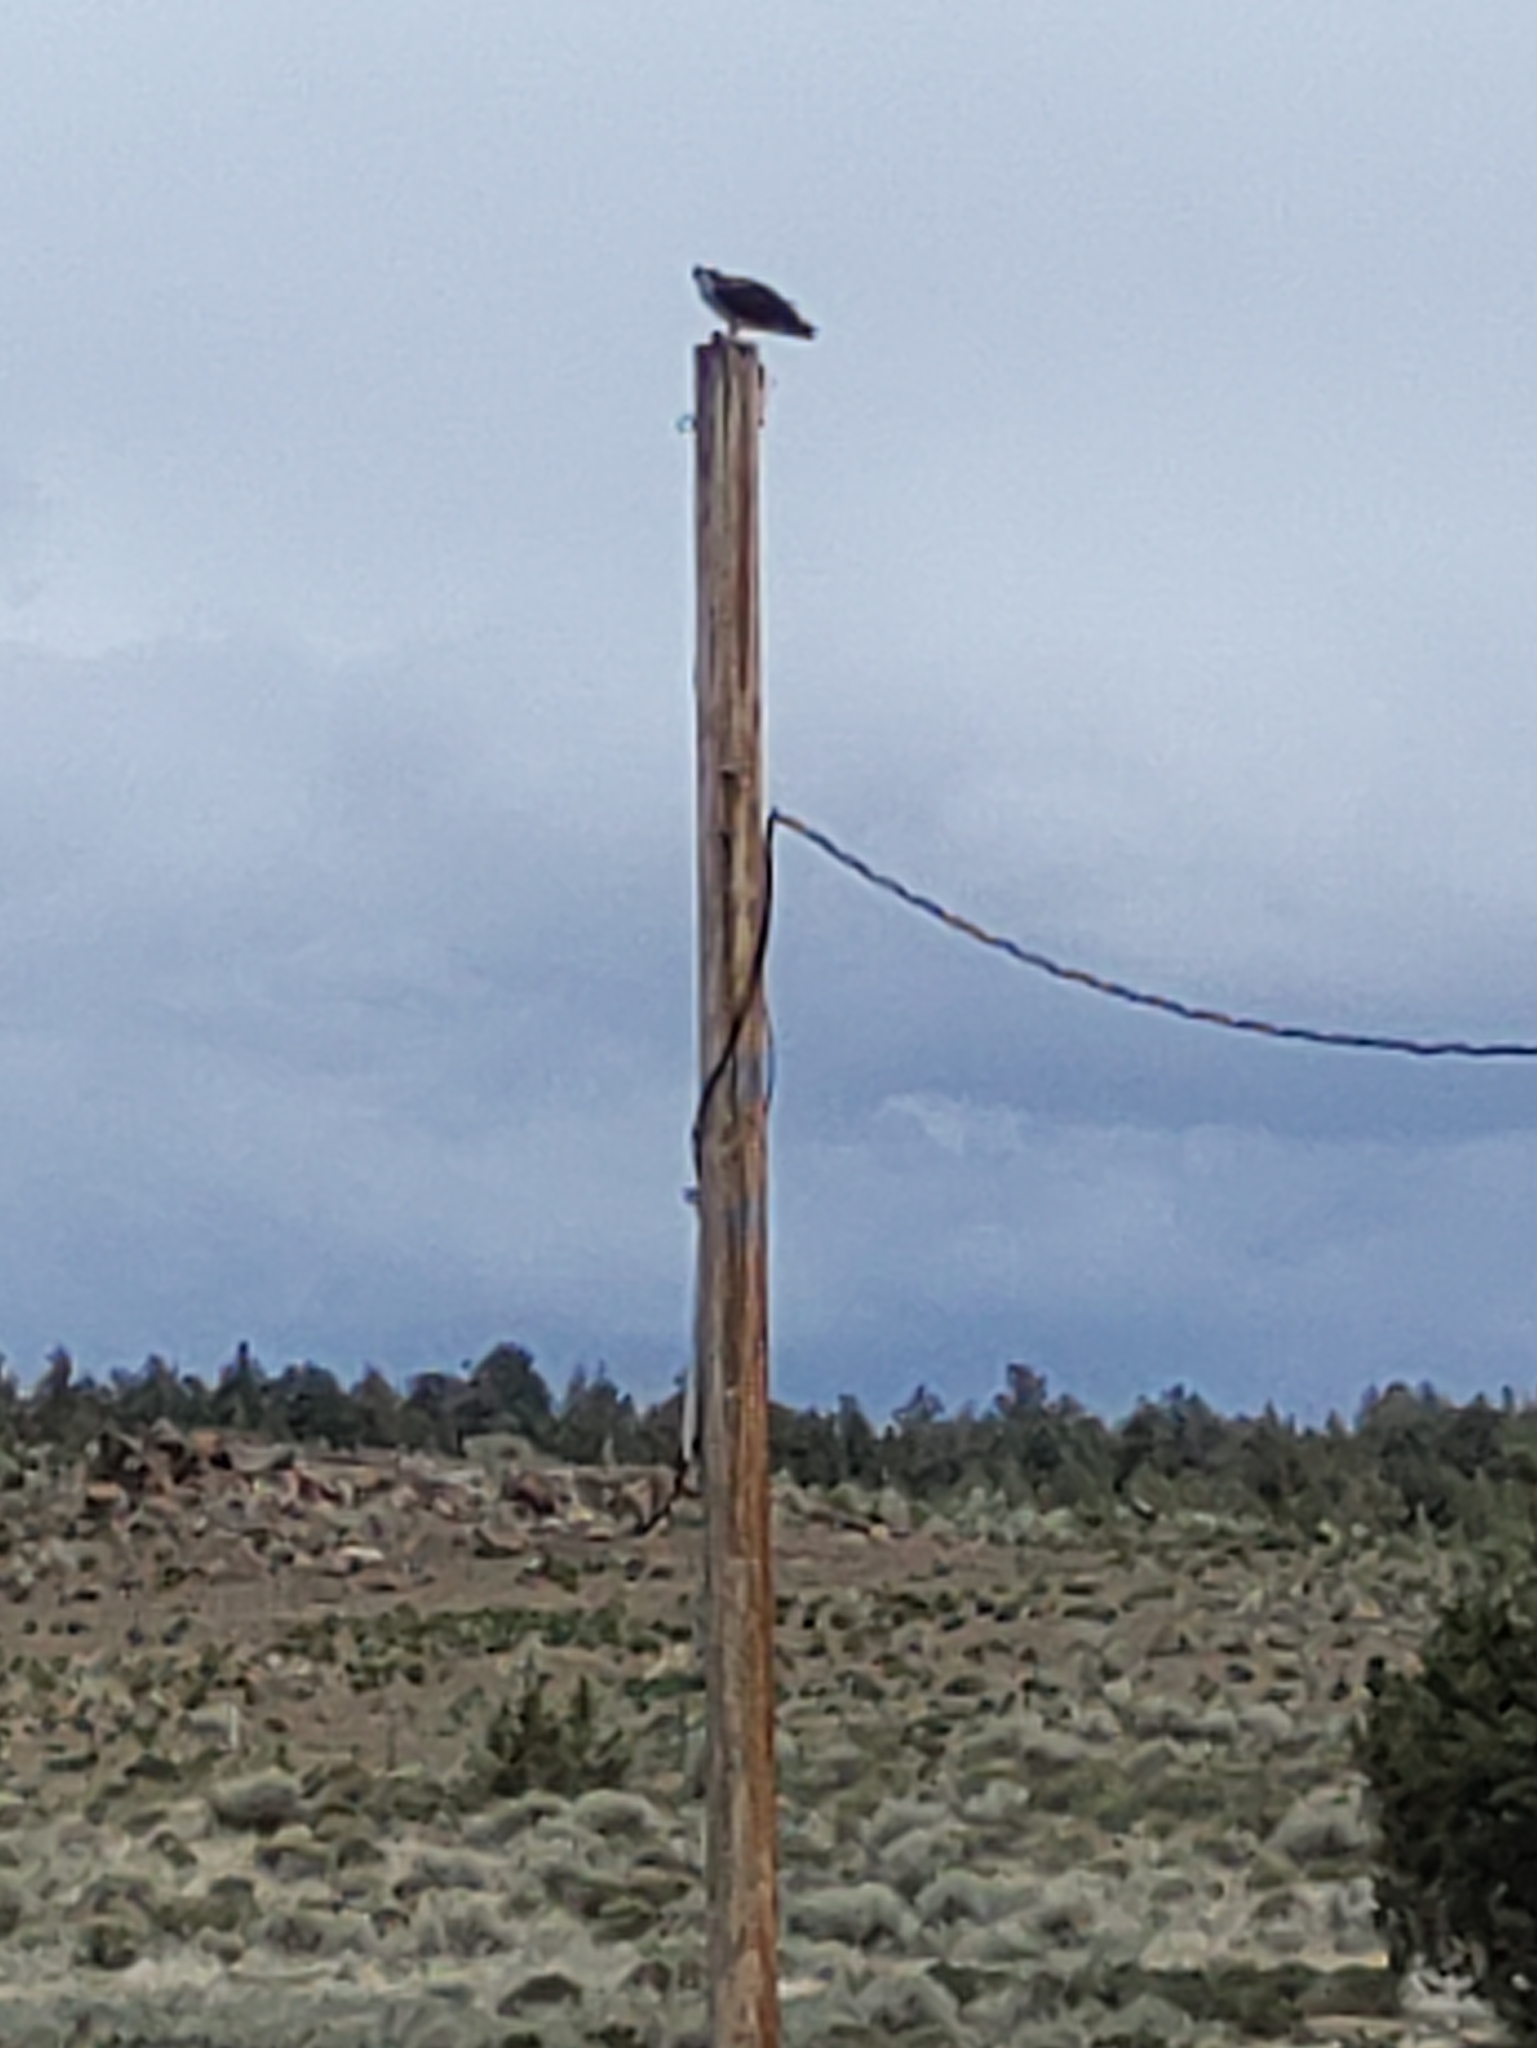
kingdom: Animalia
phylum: Chordata
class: Aves
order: Accipitriformes
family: Pandionidae
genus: Pandion
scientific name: Pandion haliaetus
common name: Osprey
